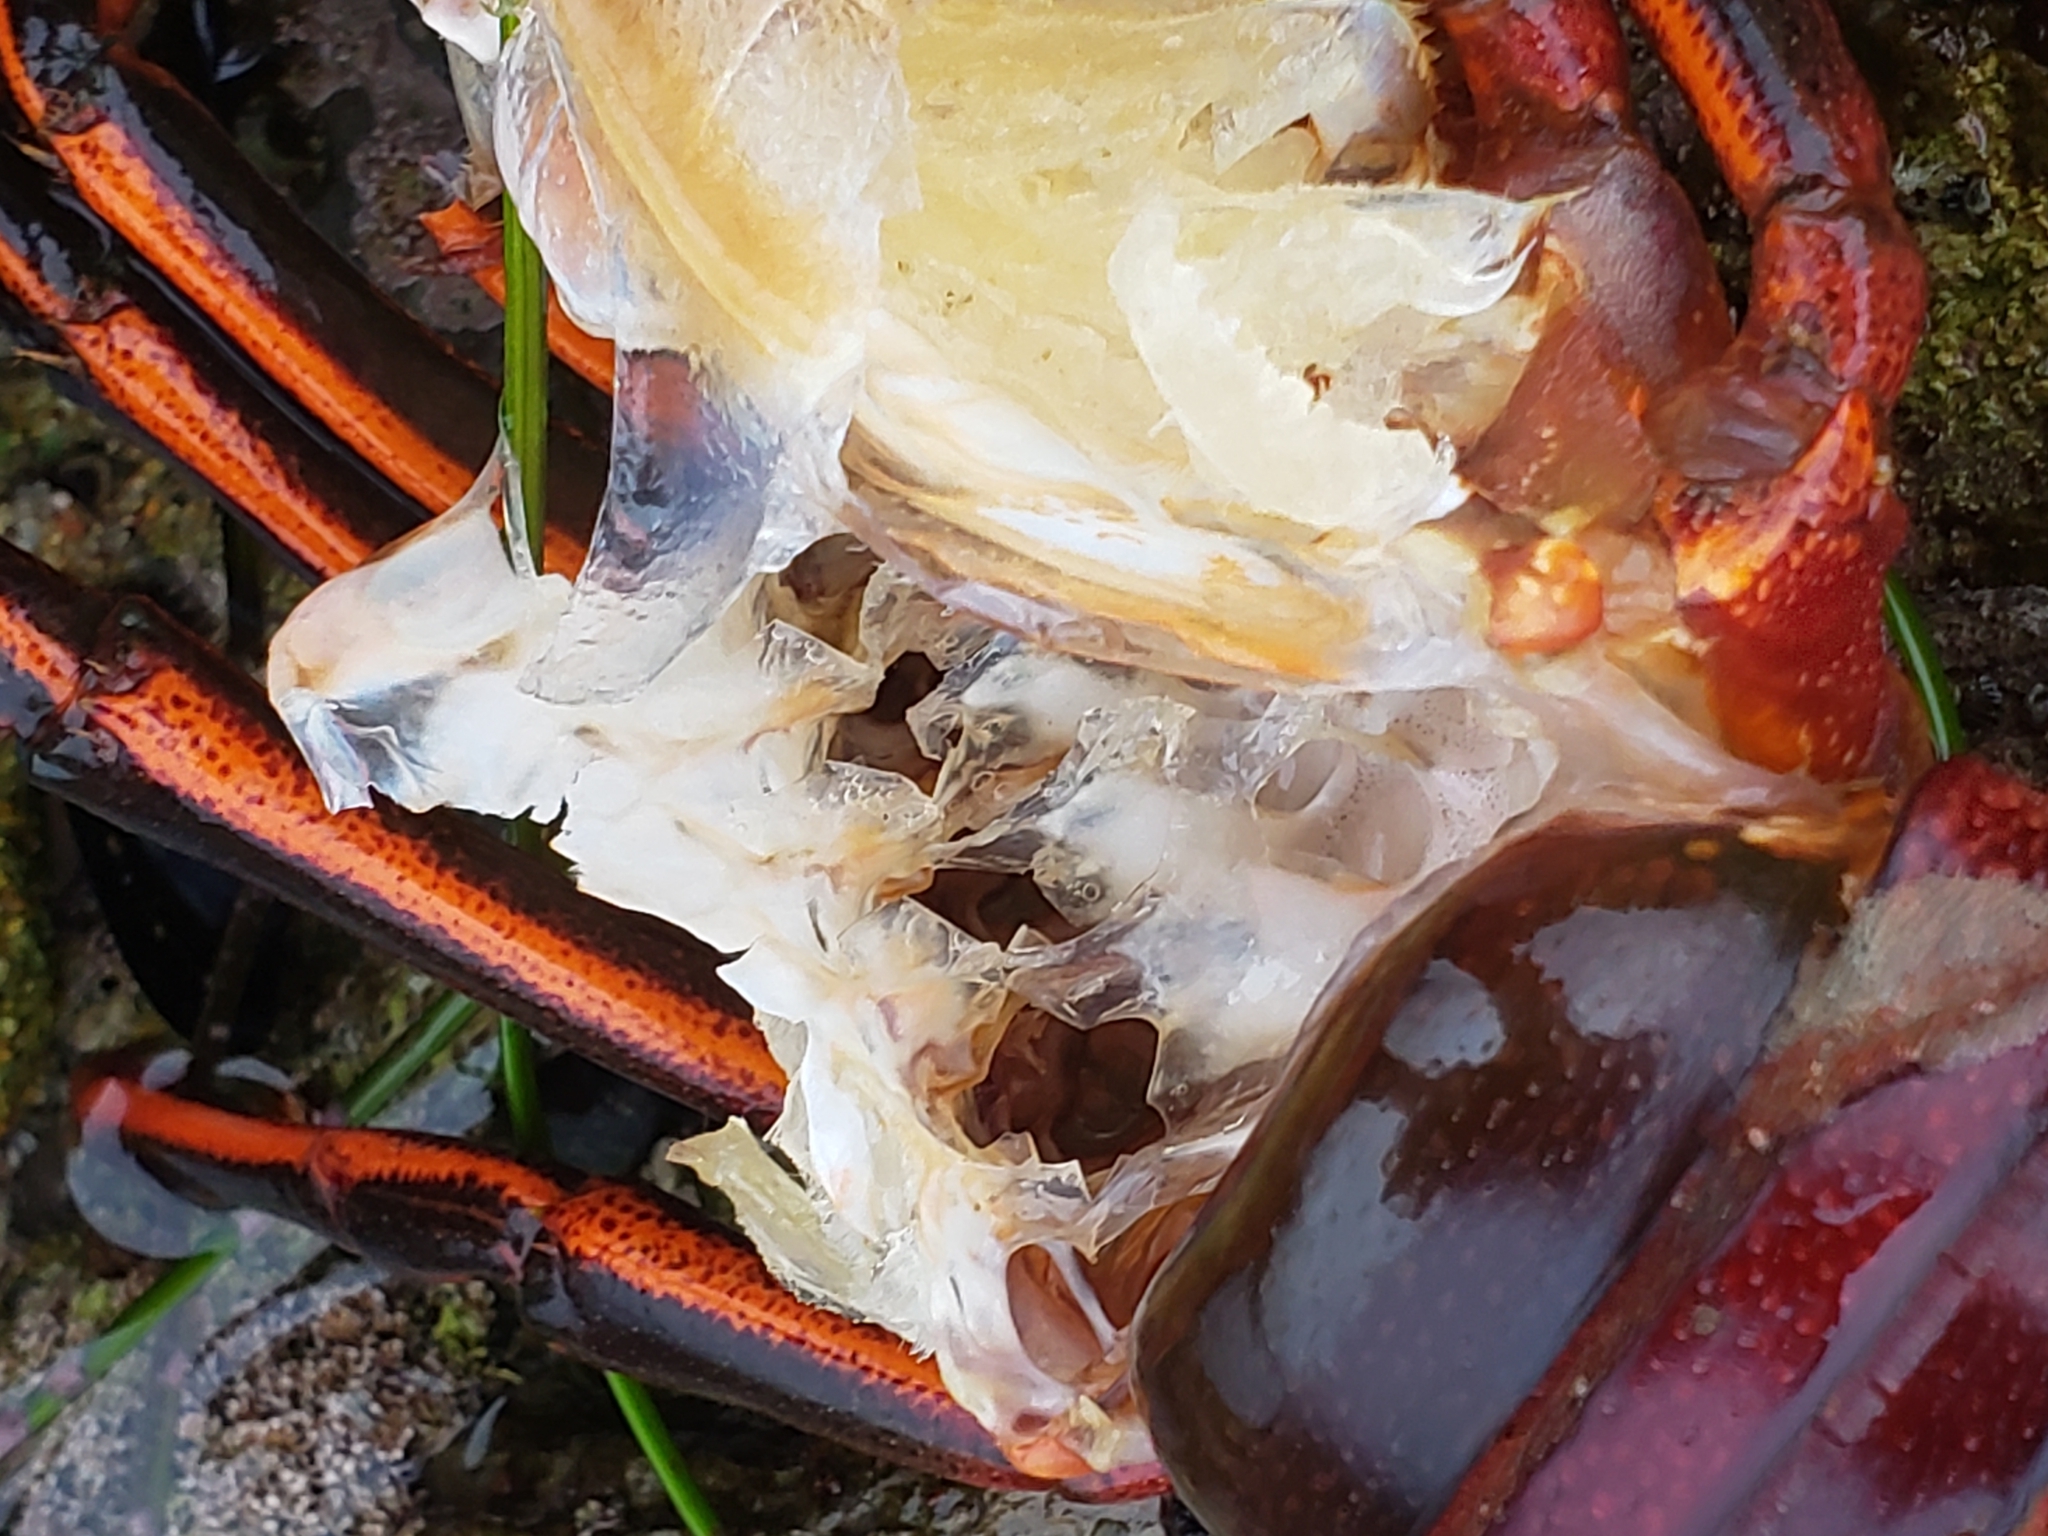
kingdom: Animalia
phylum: Arthropoda
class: Malacostraca
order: Decapoda
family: Palinuridae
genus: Panulirus
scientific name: Panulirus interruptus
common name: California spiny lobster
